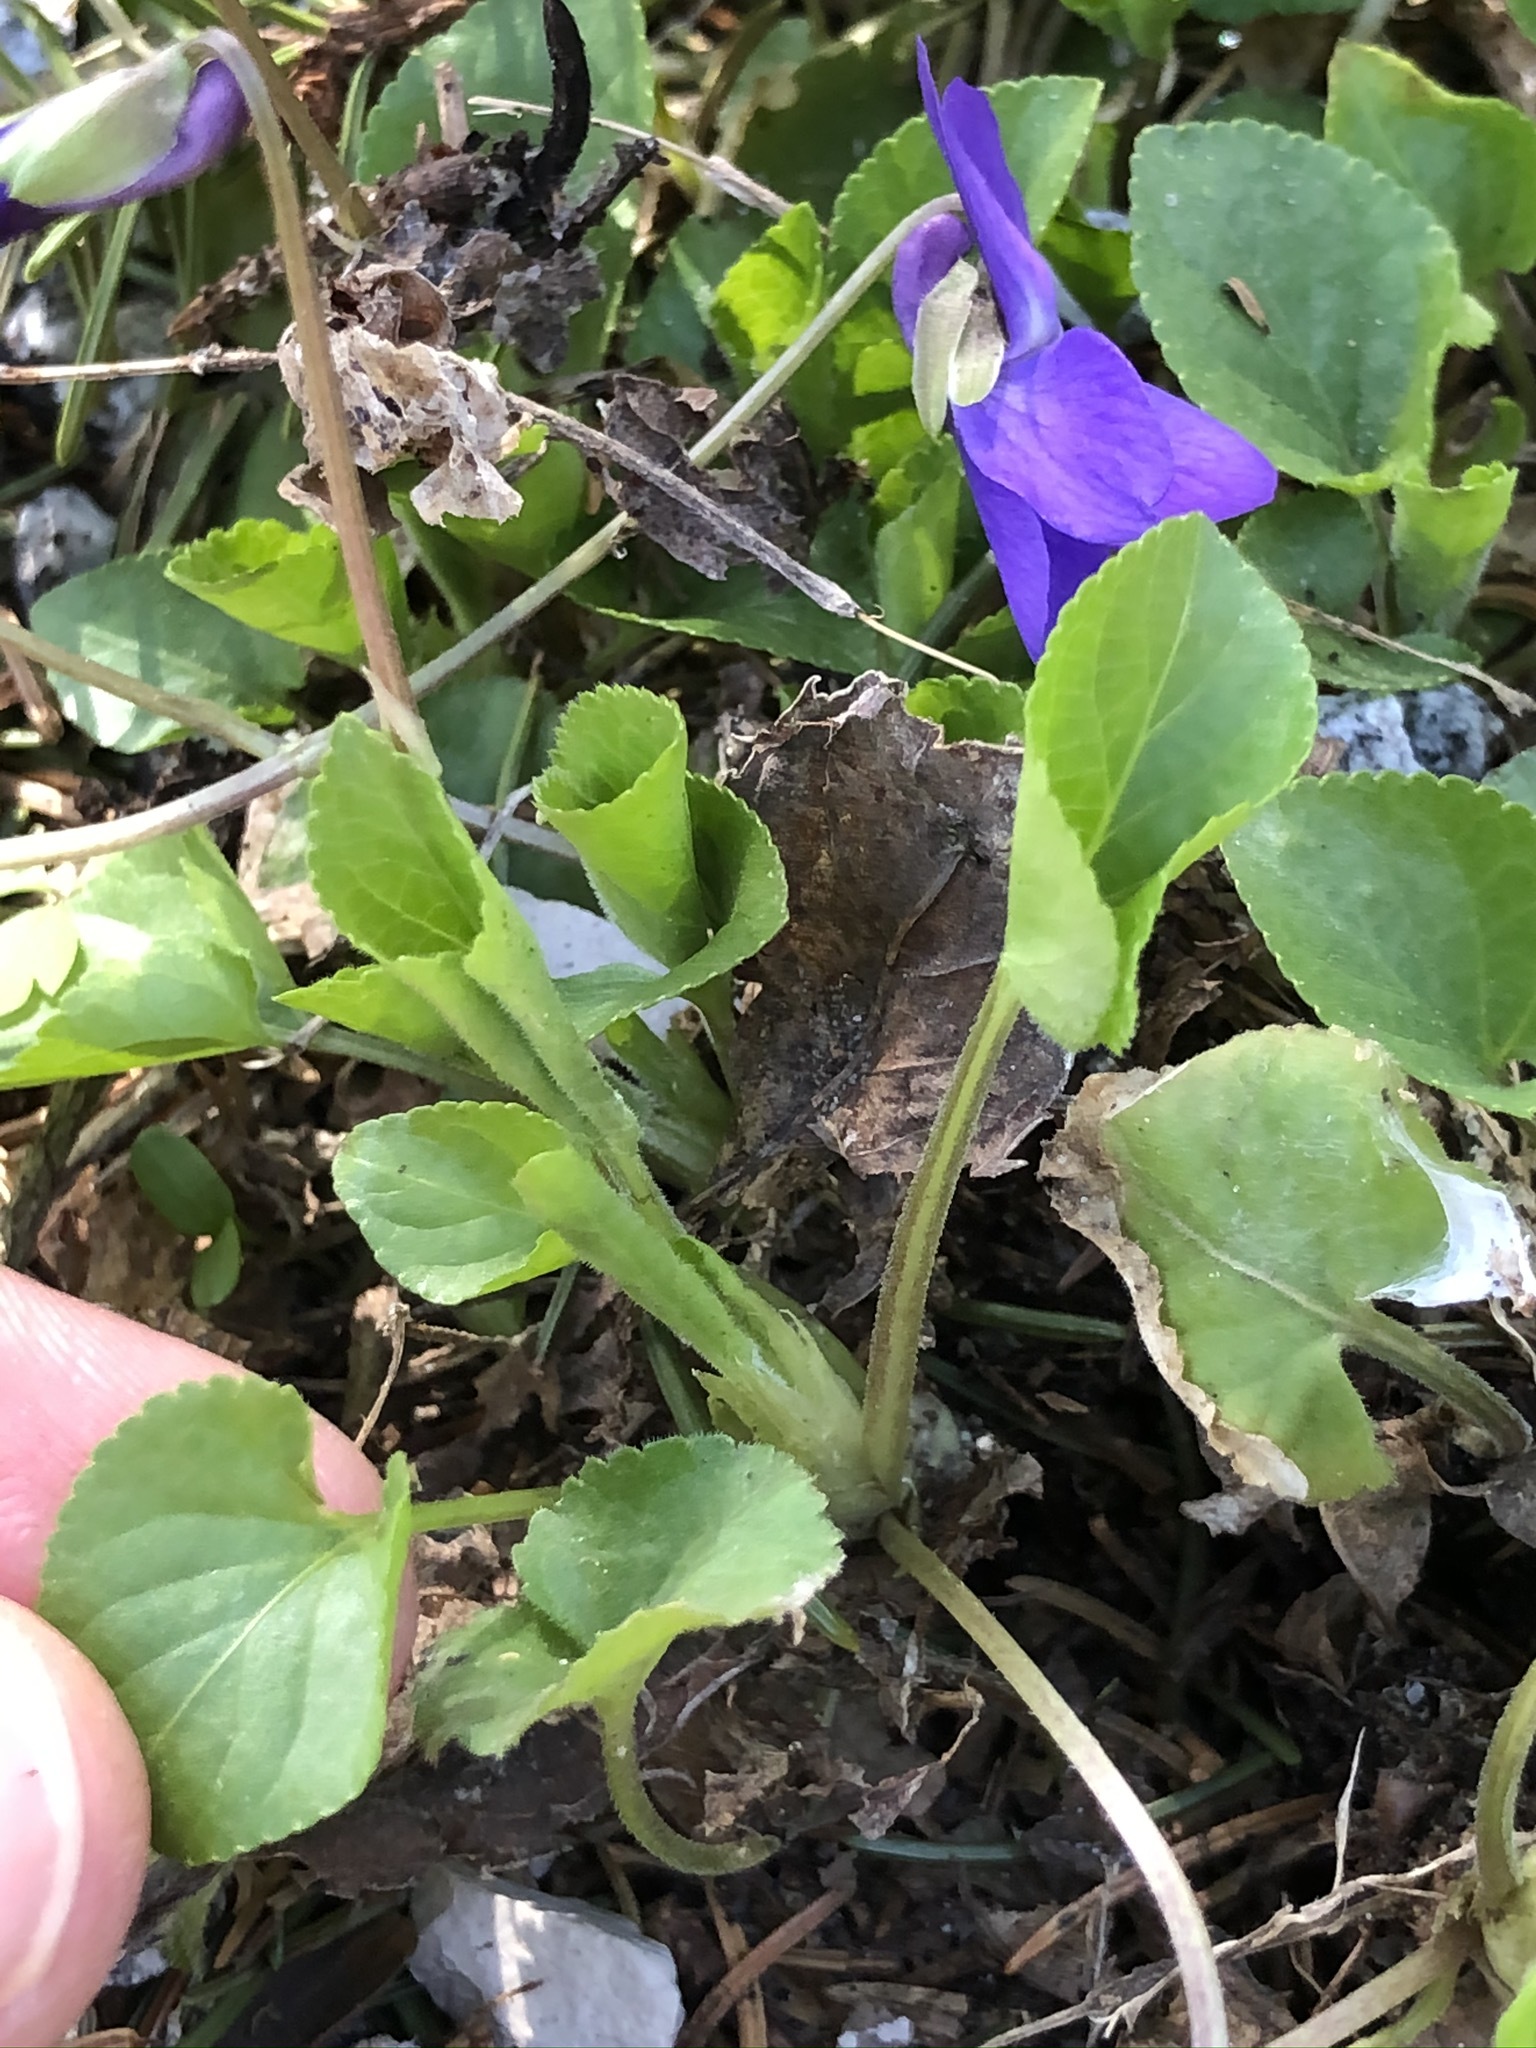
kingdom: Plantae
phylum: Tracheophyta
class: Magnoliopsida
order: Malpighiales
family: Violaceae
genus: Viola
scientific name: Viola odorata
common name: Sweet violet
